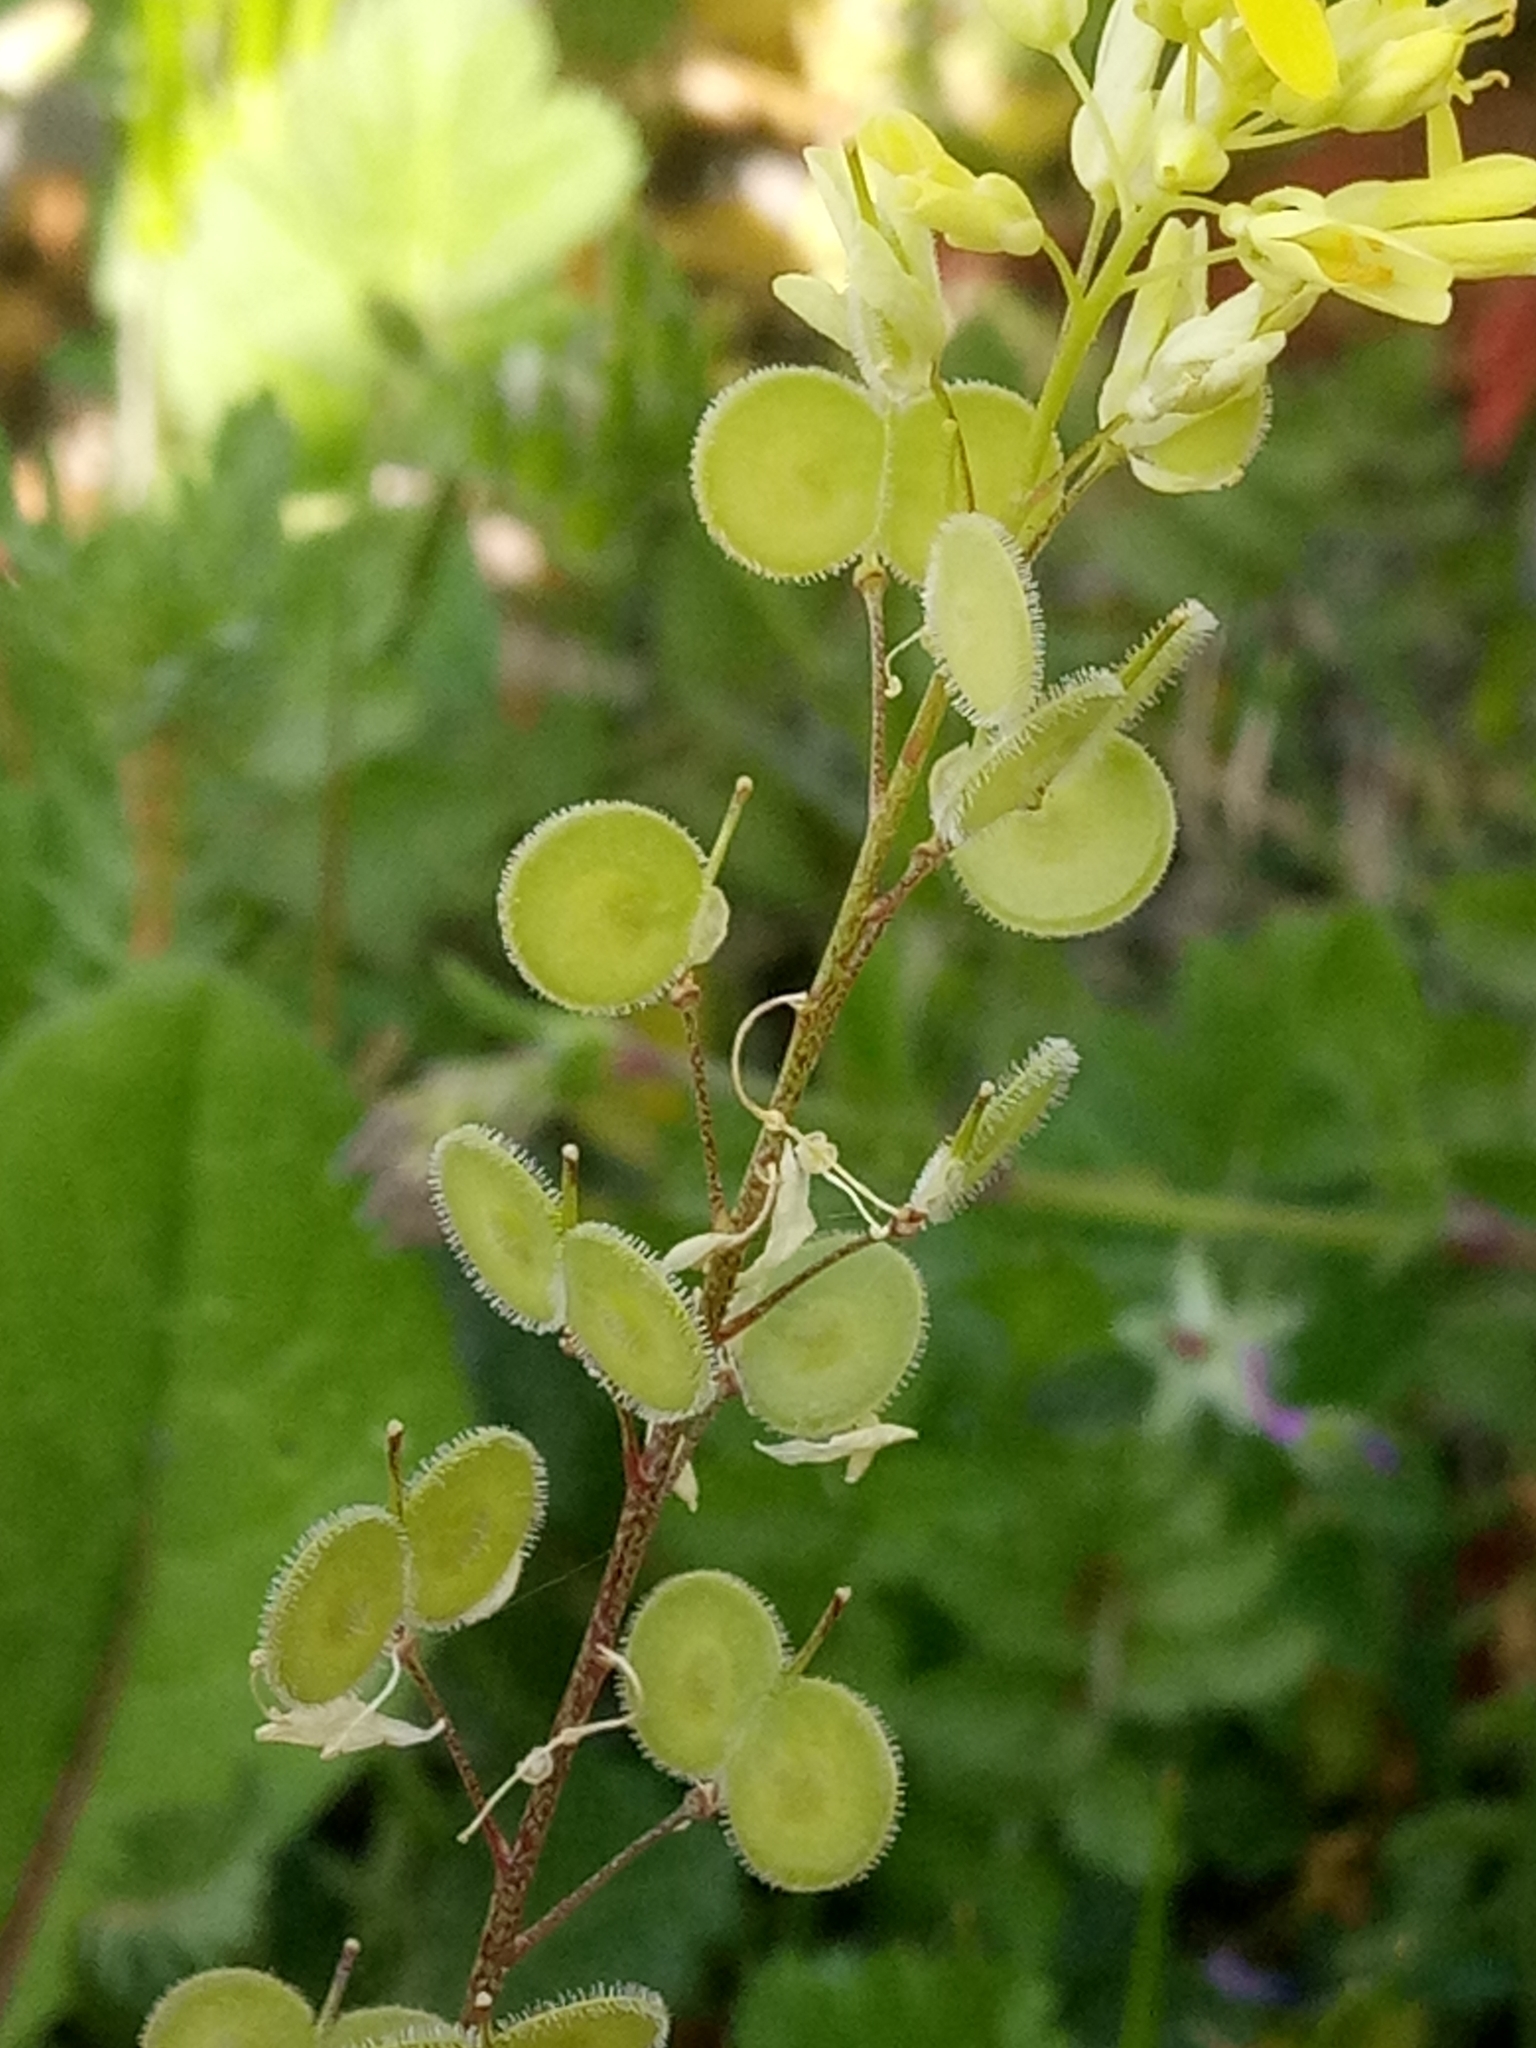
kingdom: Plantae
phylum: Tracheophyta
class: Magnoliopsida
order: Brassicales
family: Brassicaceae
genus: Biscutella
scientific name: Biscutella didyma
